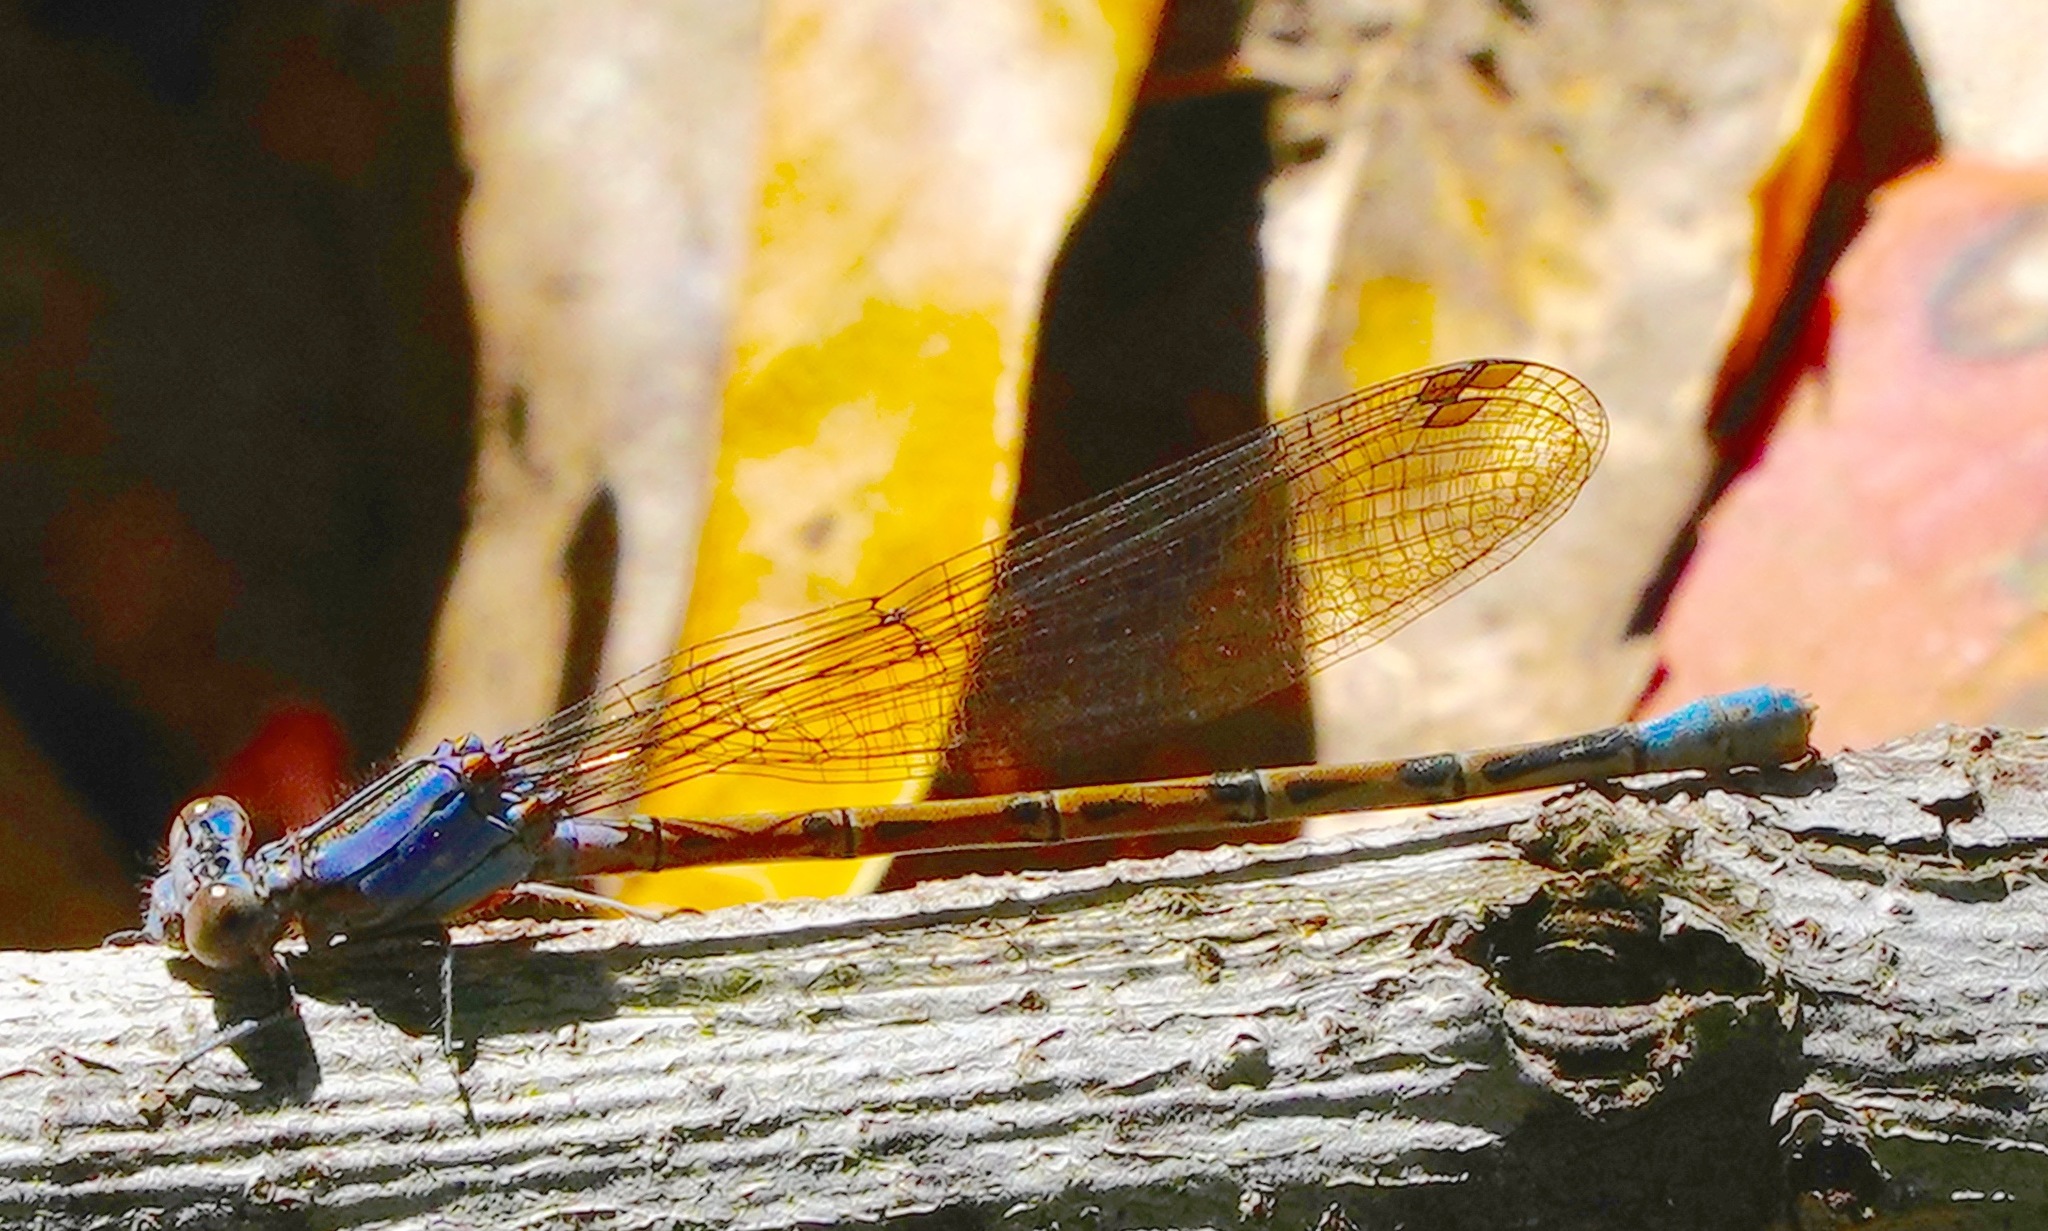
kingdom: Animalia
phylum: Arthropoda
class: Insecta
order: Odonata
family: Coenagrionidae
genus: Argia
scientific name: Argia vivida
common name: Vivid dancer
